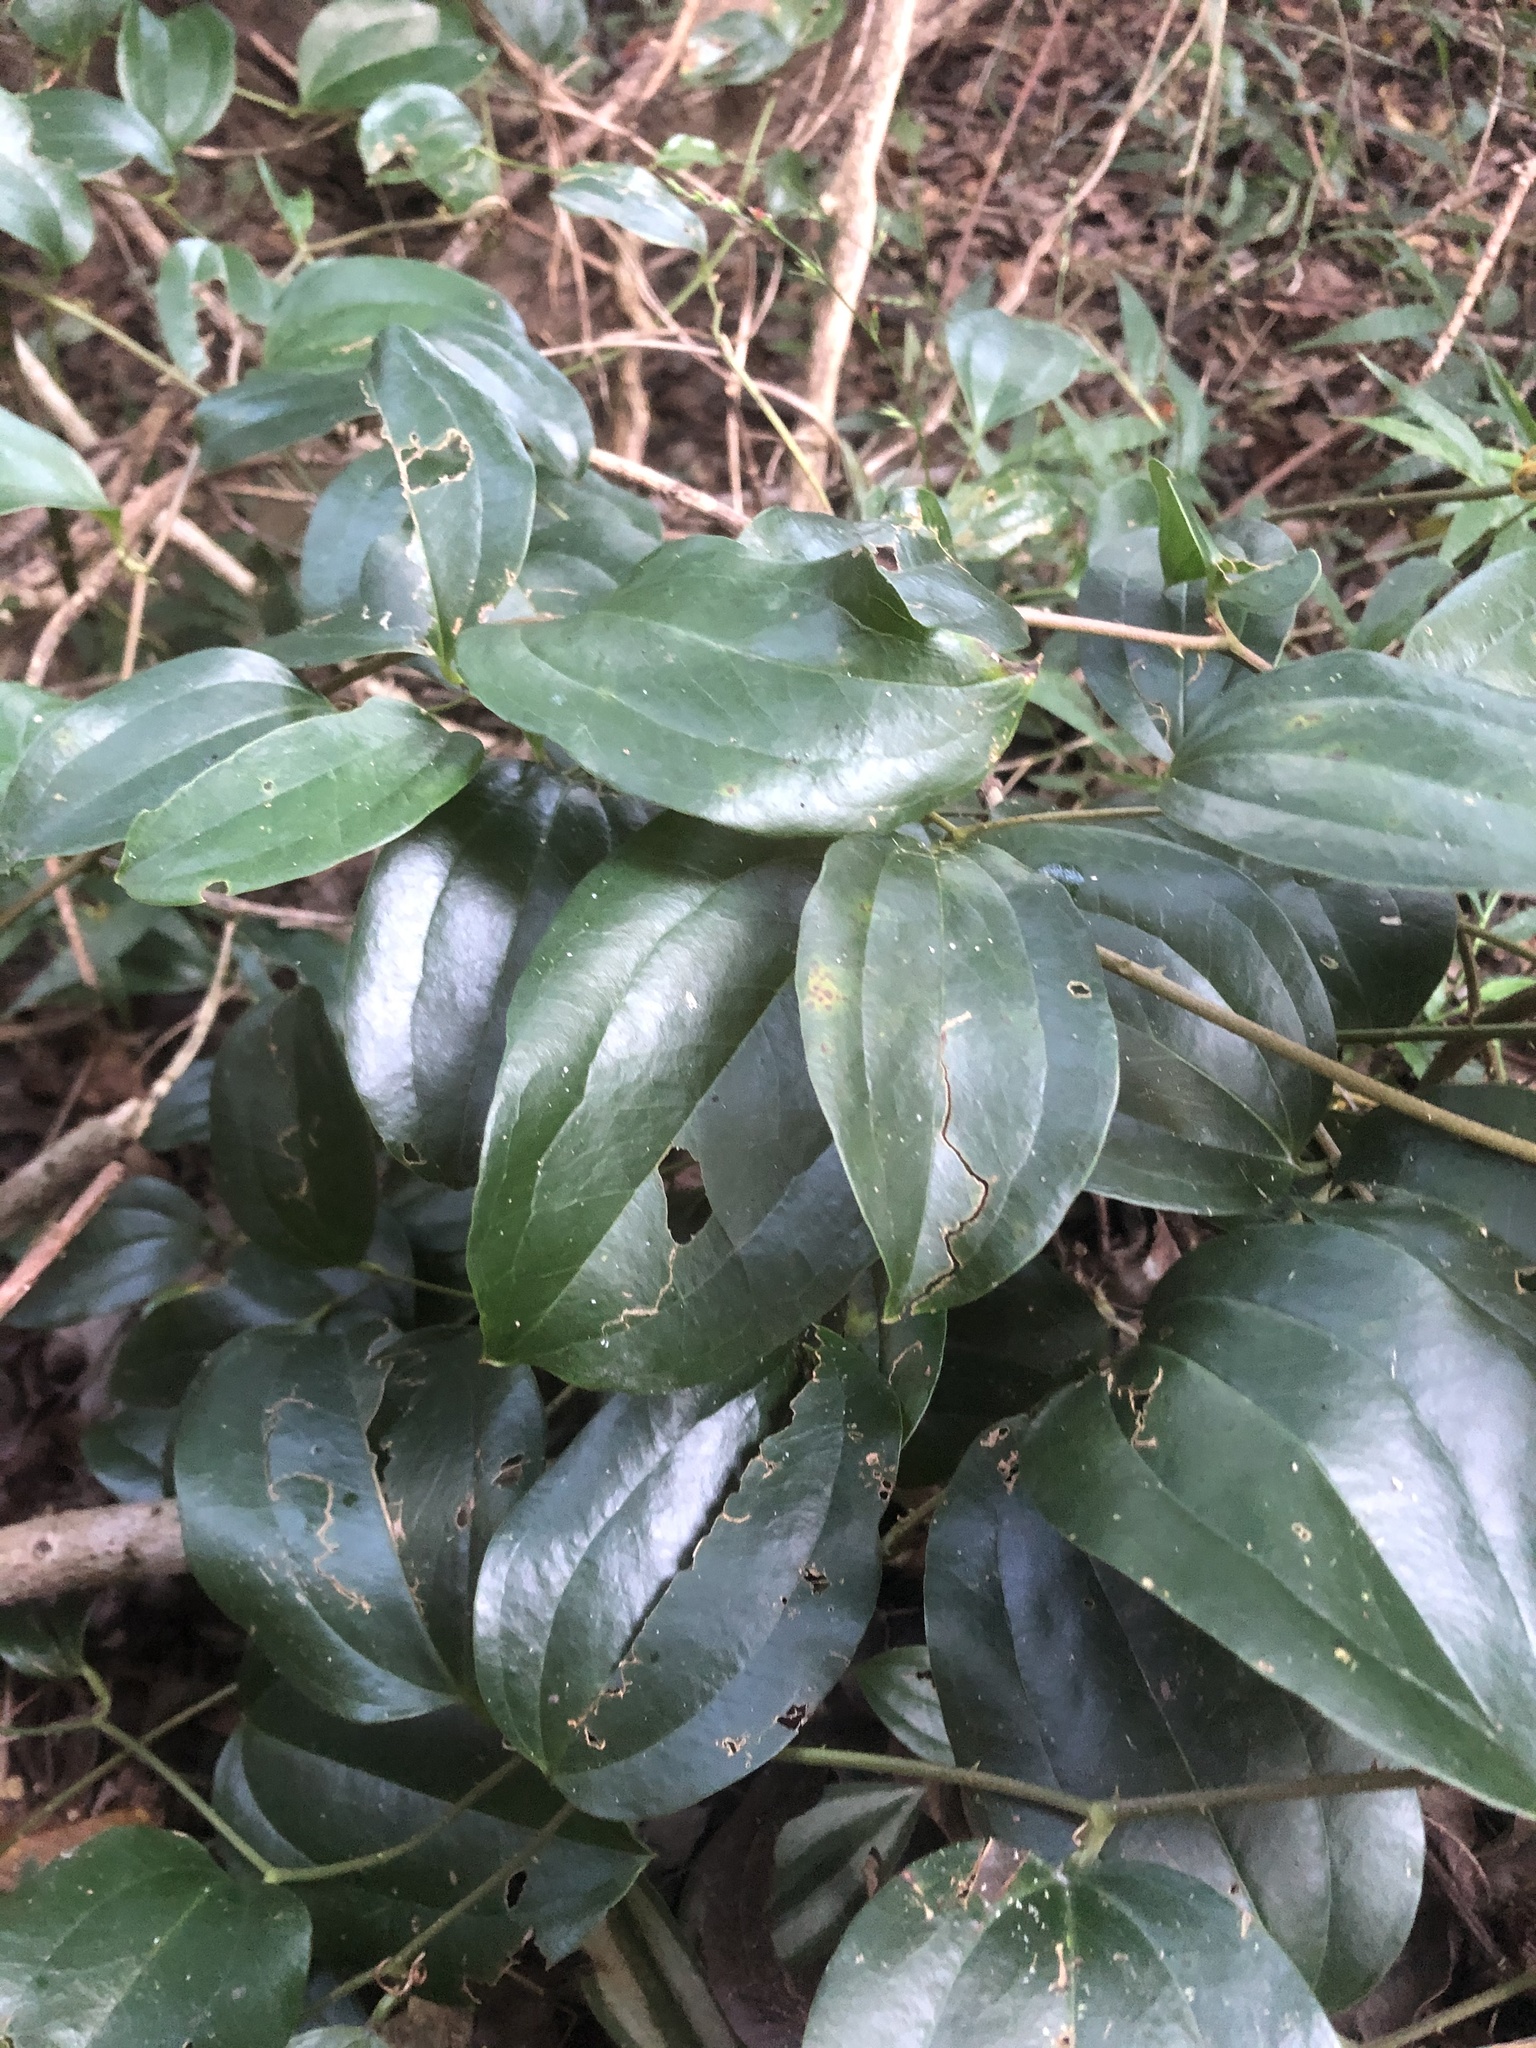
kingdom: Plantae
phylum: Tracheophyta
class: Liliopsida
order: Liliales
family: Smilacaceae
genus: Smilax
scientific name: Smilax anceps
